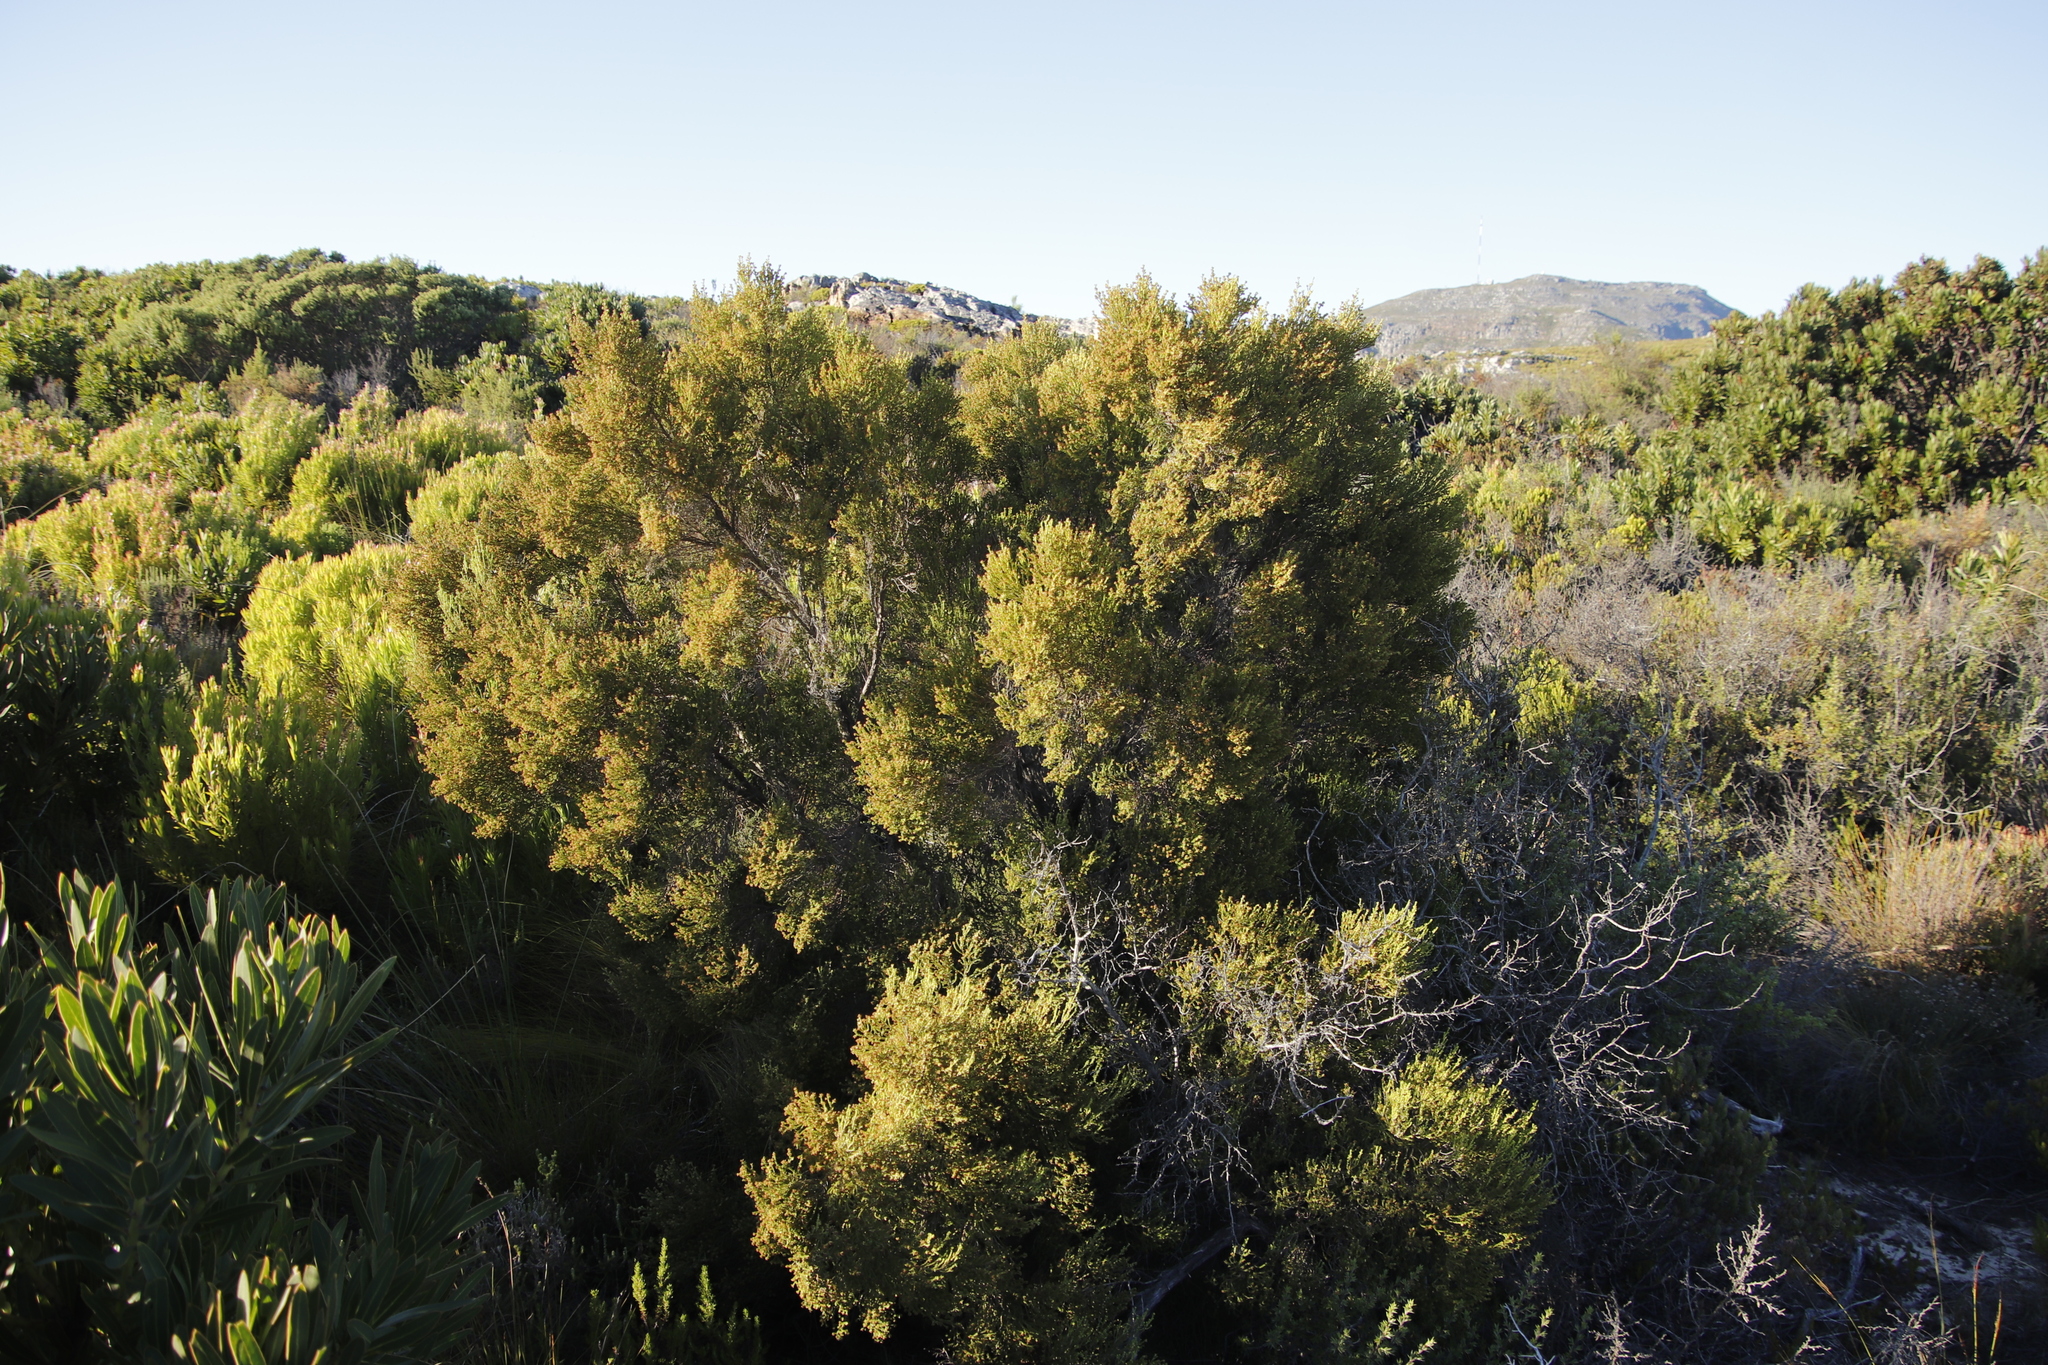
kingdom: Plantae
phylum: Tracheophyta
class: Magnoliopsida
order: Ericales
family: Ericaceae
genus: Erica
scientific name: Erica tristis
